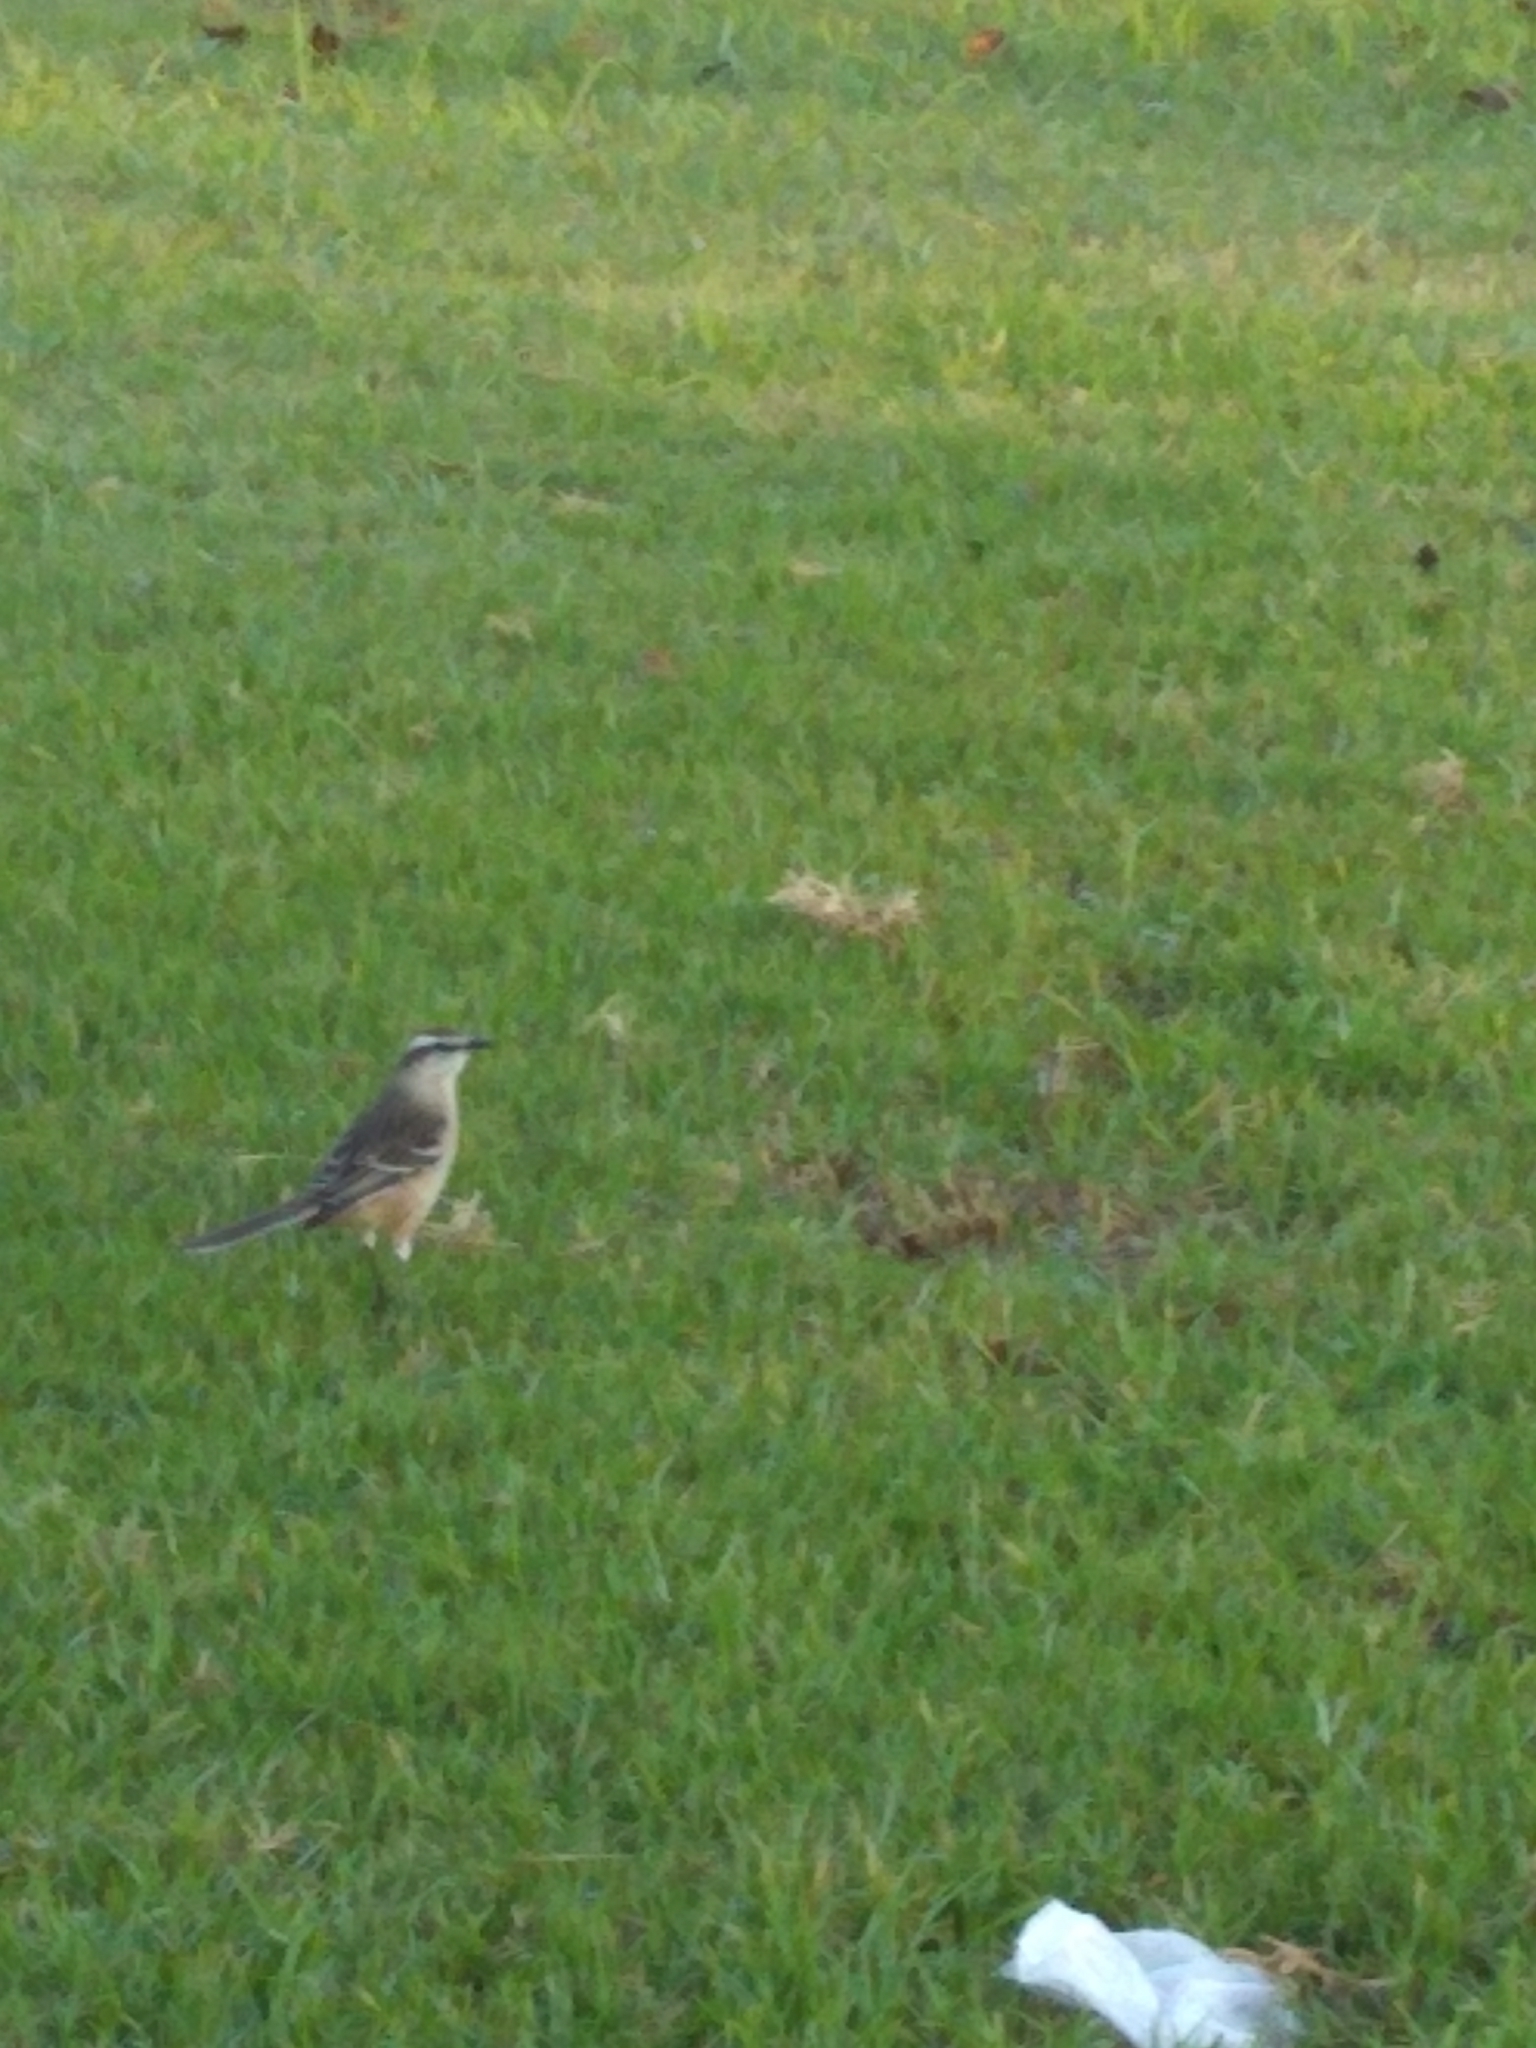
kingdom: Animalia
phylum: Chordata
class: Aves
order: Passeriformes
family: Mimidae
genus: Mimus
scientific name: Mimus saturninus
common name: Chalk-browed mockingbird
